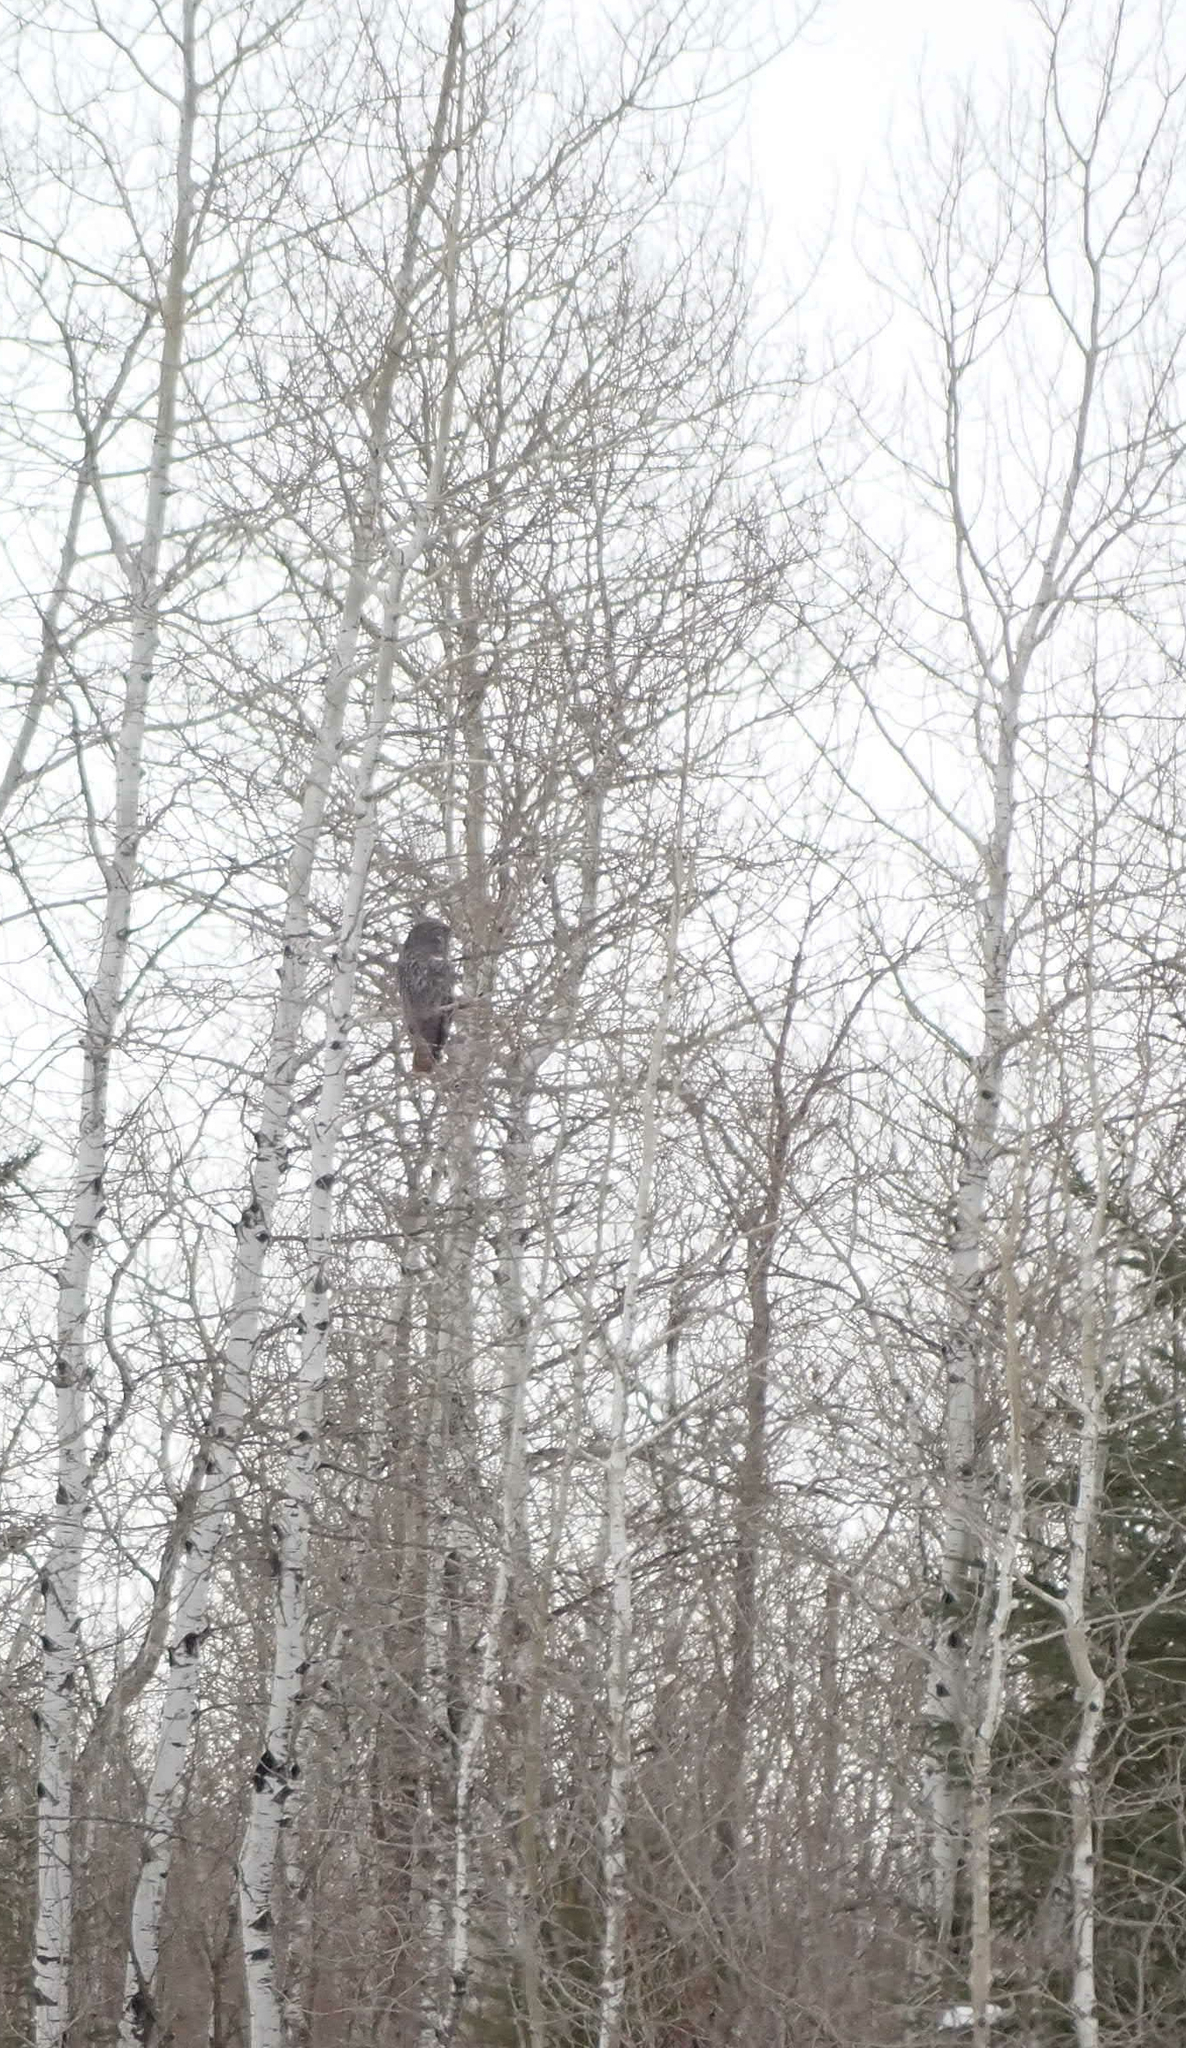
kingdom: Plantae
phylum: Tracheophyta
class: Magnoliopsida
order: Malpighiales
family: Salicaceae
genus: Populus
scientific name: Populus tremuloides
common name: Quaking aspen
